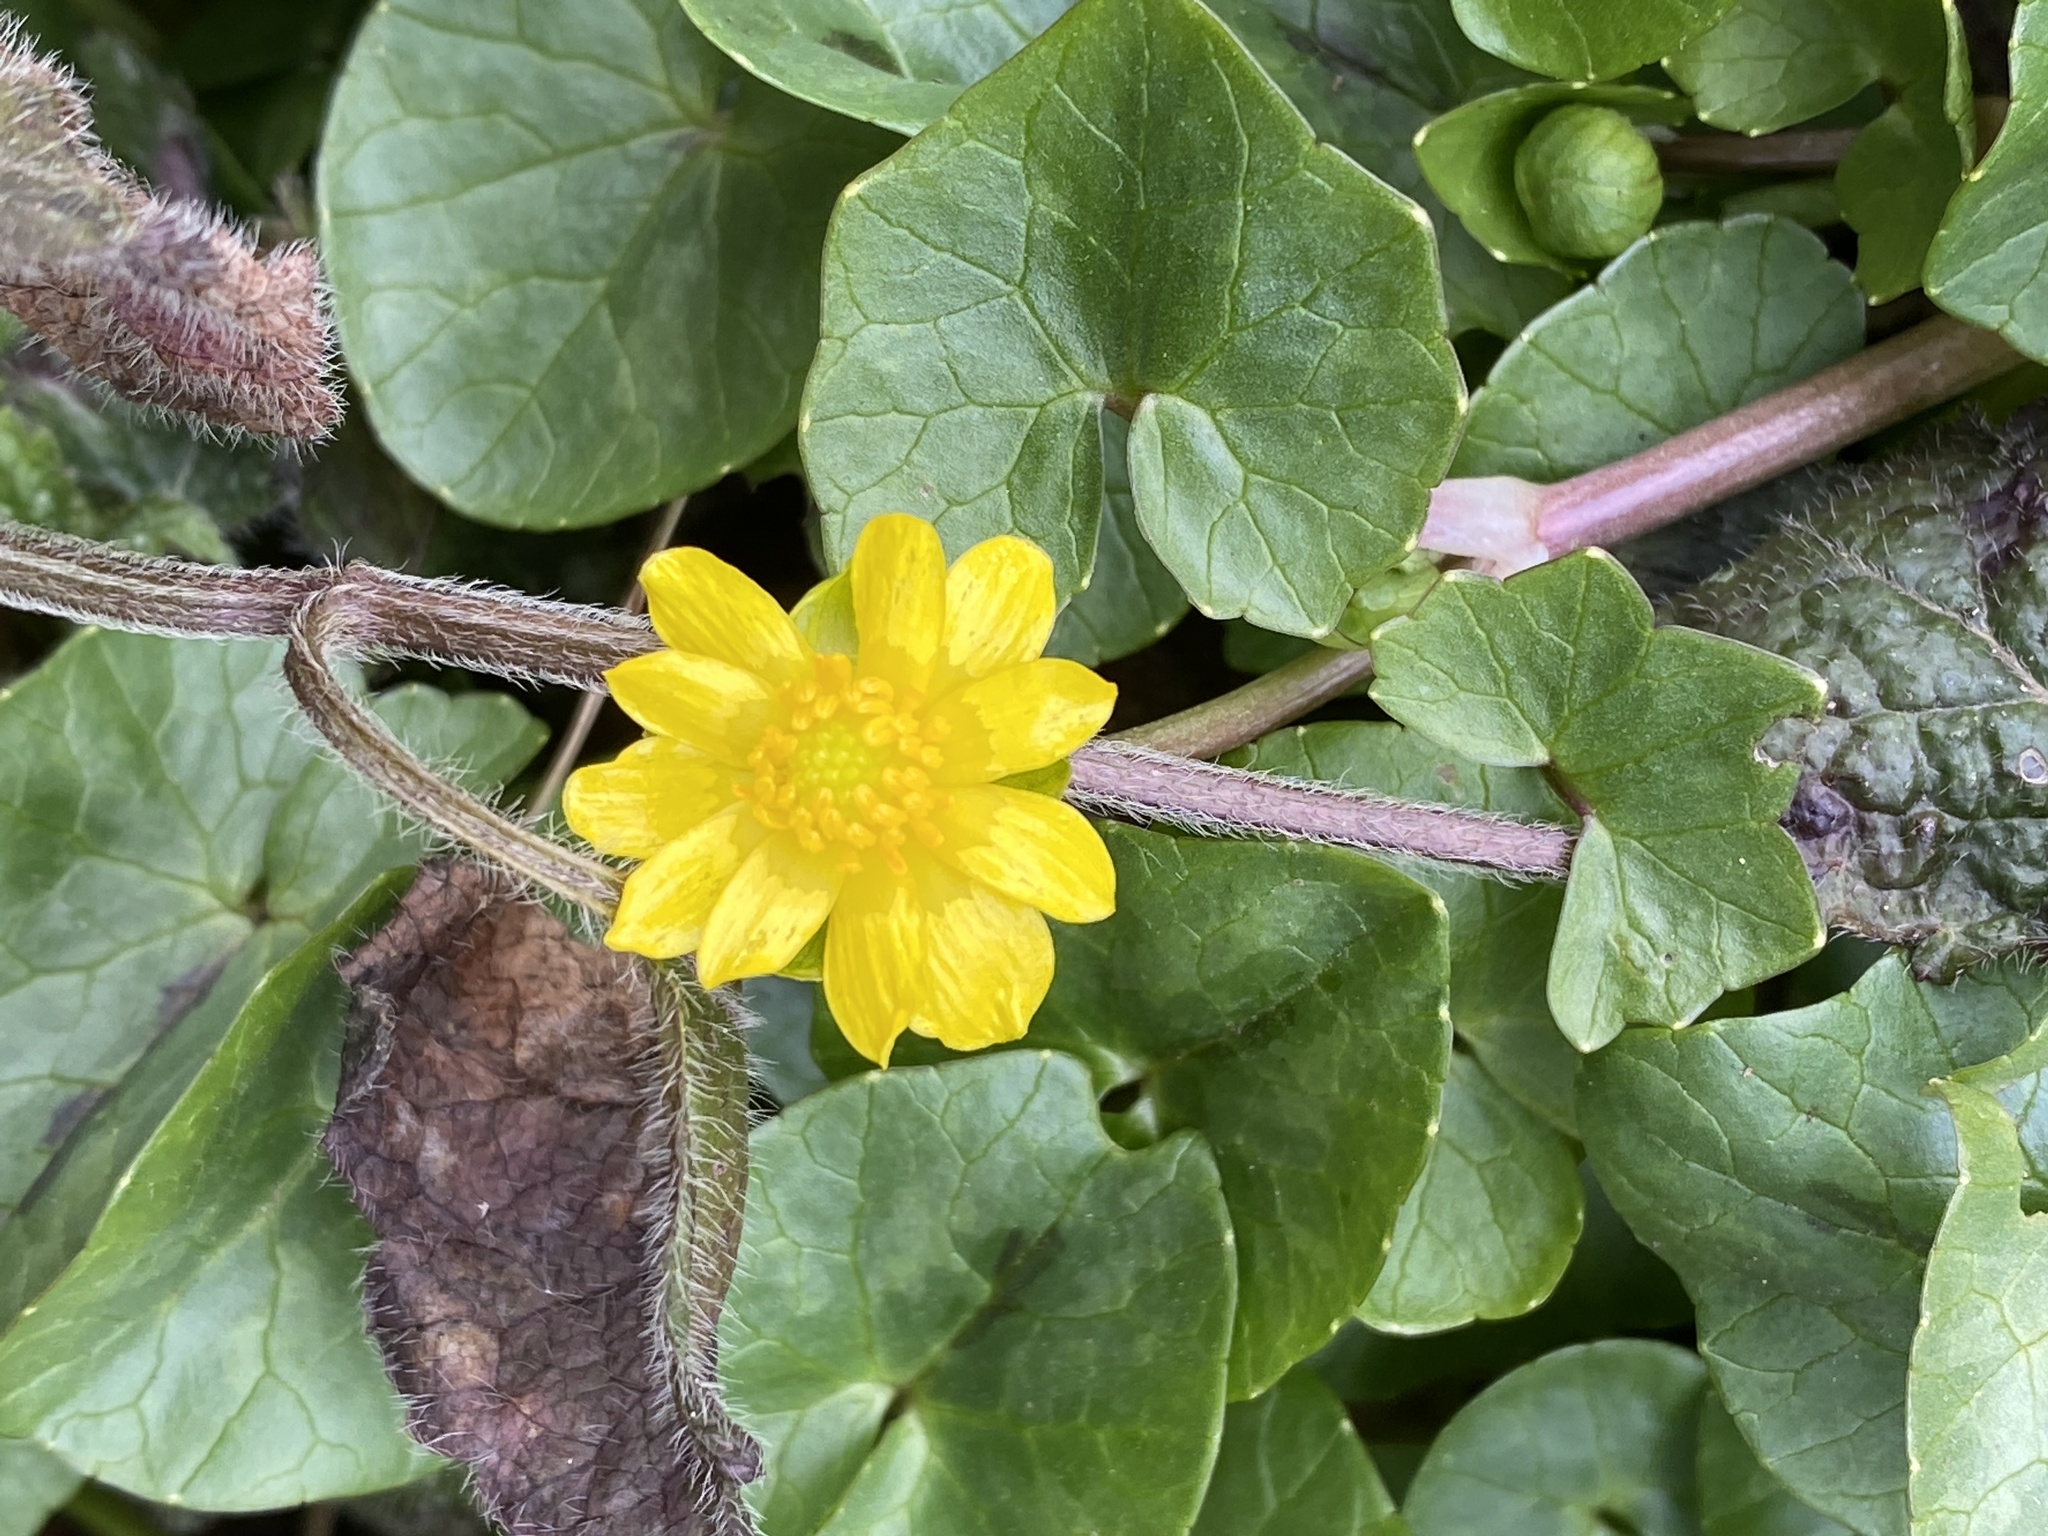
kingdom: Plantae
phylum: Tracheophyta
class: Magnoliopsida
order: Ranunculales
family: Ranunculaceae
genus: Ficaria
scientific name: Ficaria verna
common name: Lesser celandine
